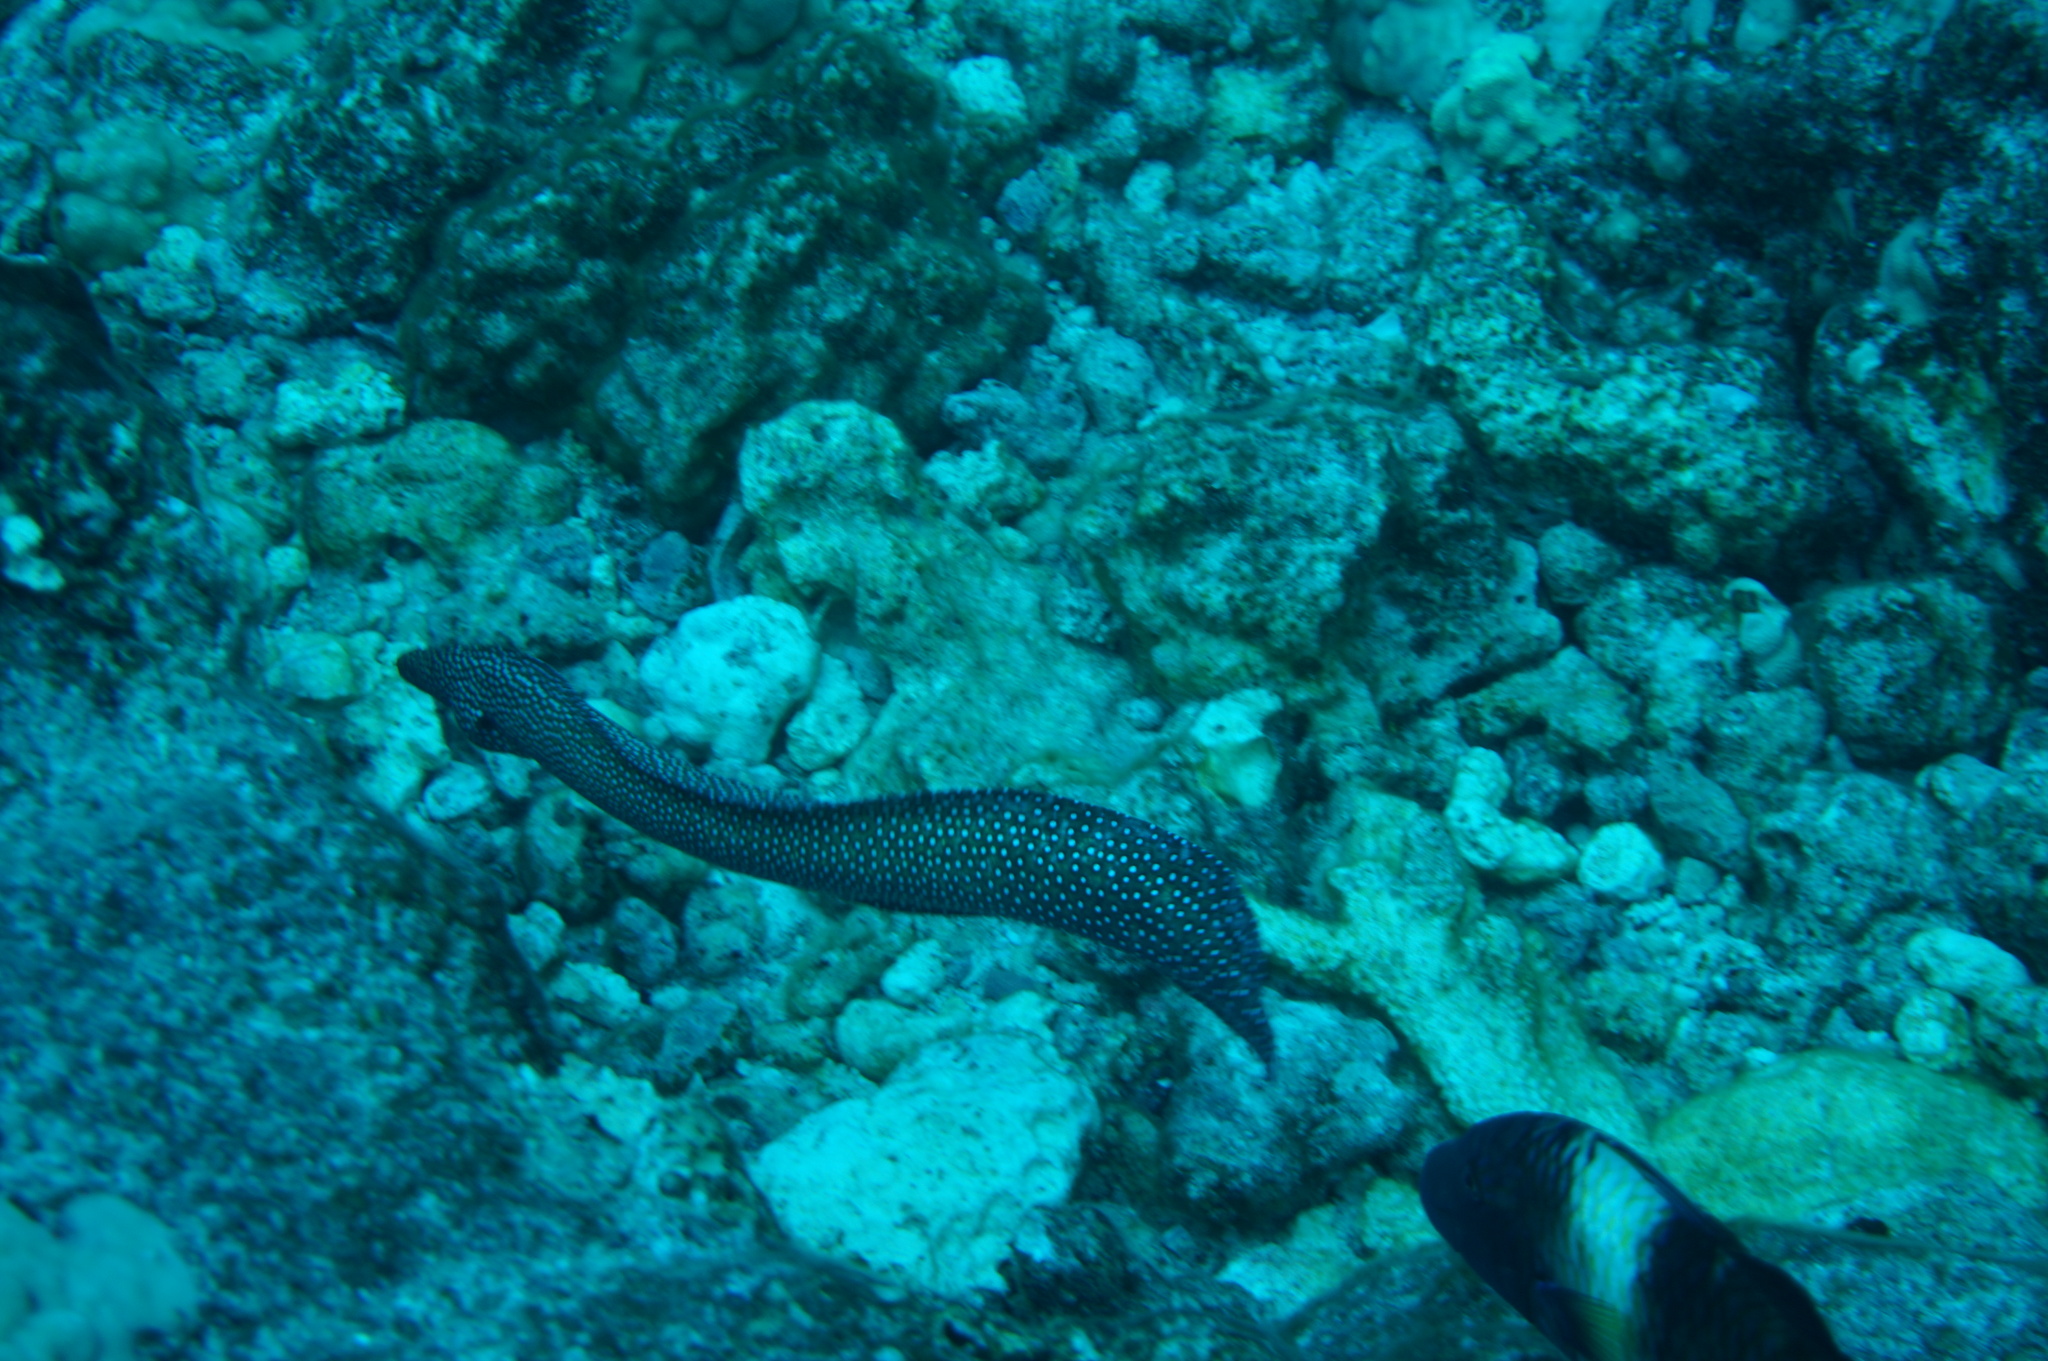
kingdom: Animalia
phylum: Chordata
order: Anguilliformes
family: Muraenidae
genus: Gymnothorax
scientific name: Gymnothorax meleagris
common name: Guineafowl moray
